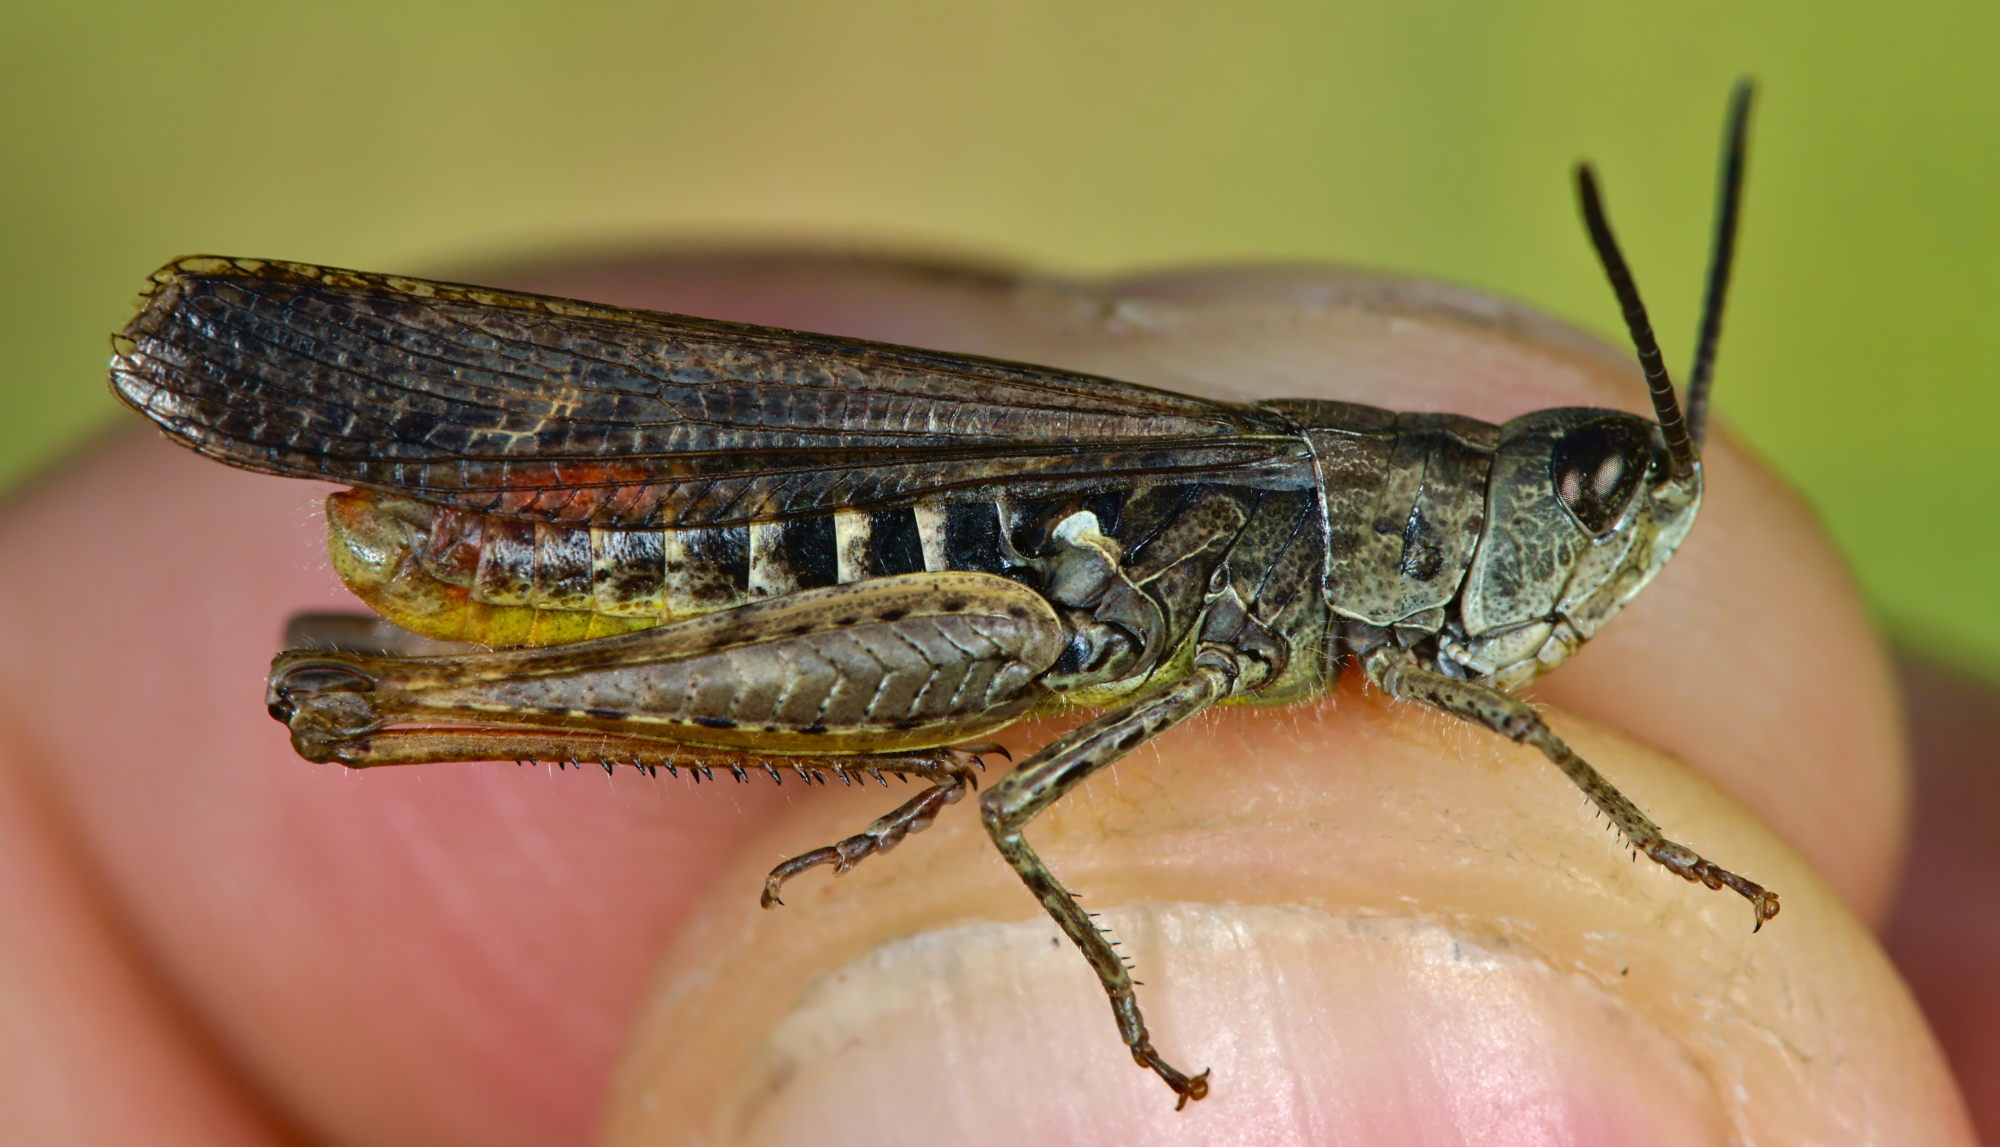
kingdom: Animalia
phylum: Arthropoda
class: Insecta
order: Orthoptera
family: Acrididae
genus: Chorthippus
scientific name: Chorthippus brunneus
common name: Field grasshopper
